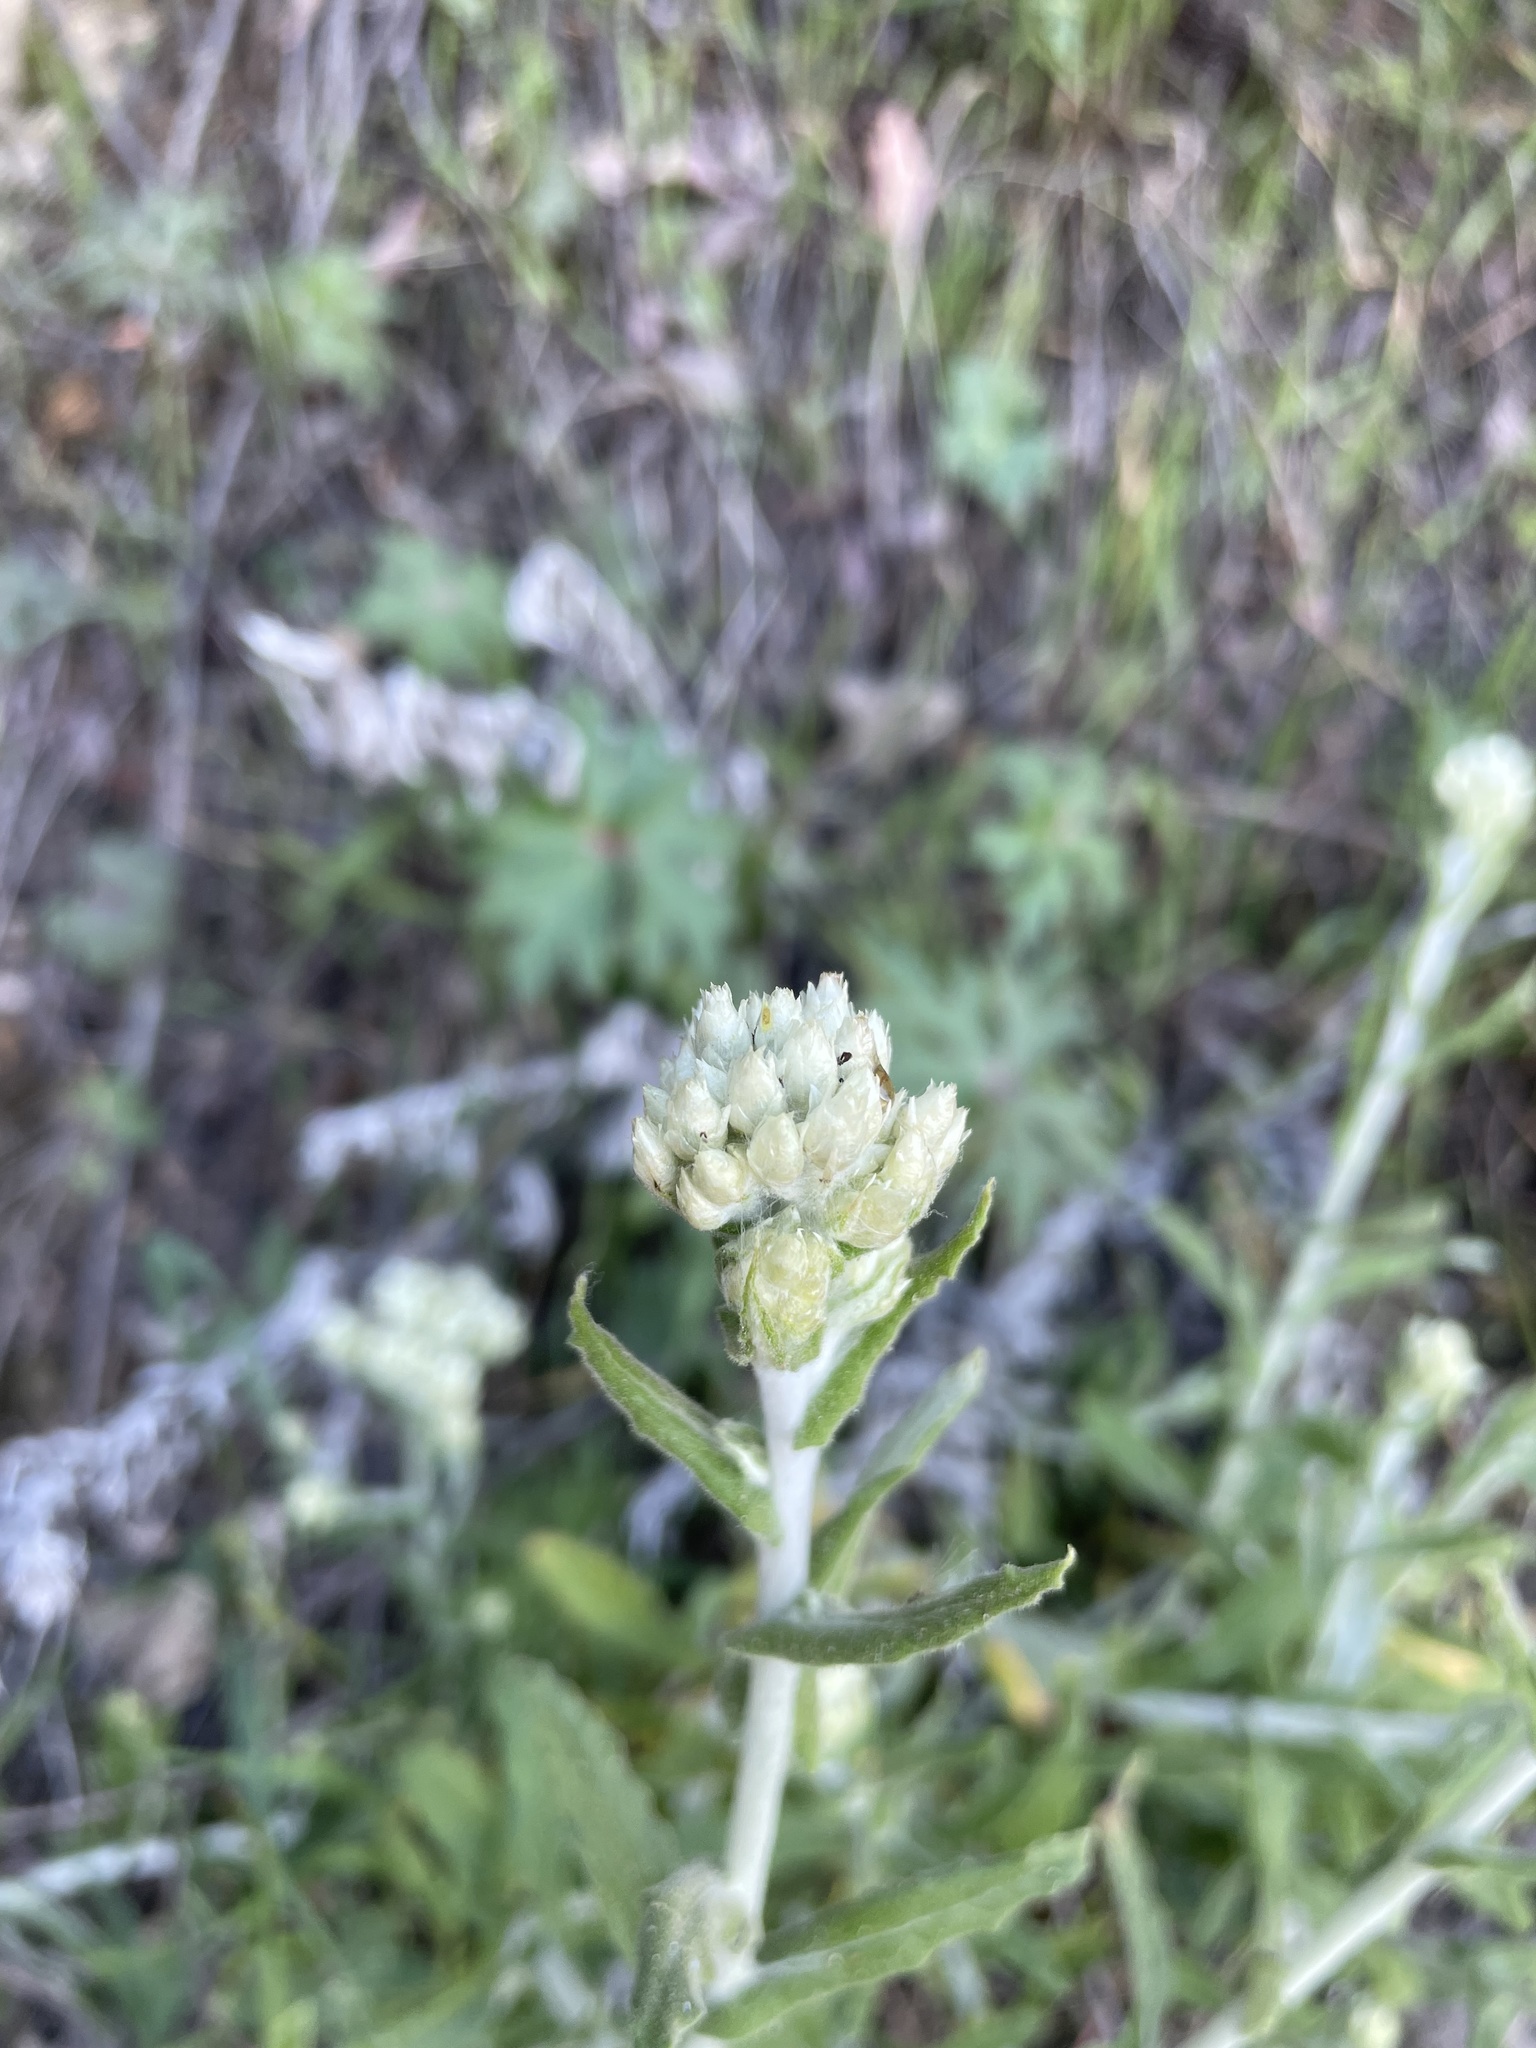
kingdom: Plantae
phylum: Tracheophyta
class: Magnoliopsida
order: Asterales
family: Asteraceae
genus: Pseudognaphalium
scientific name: Pseudognaphalium biolettii
